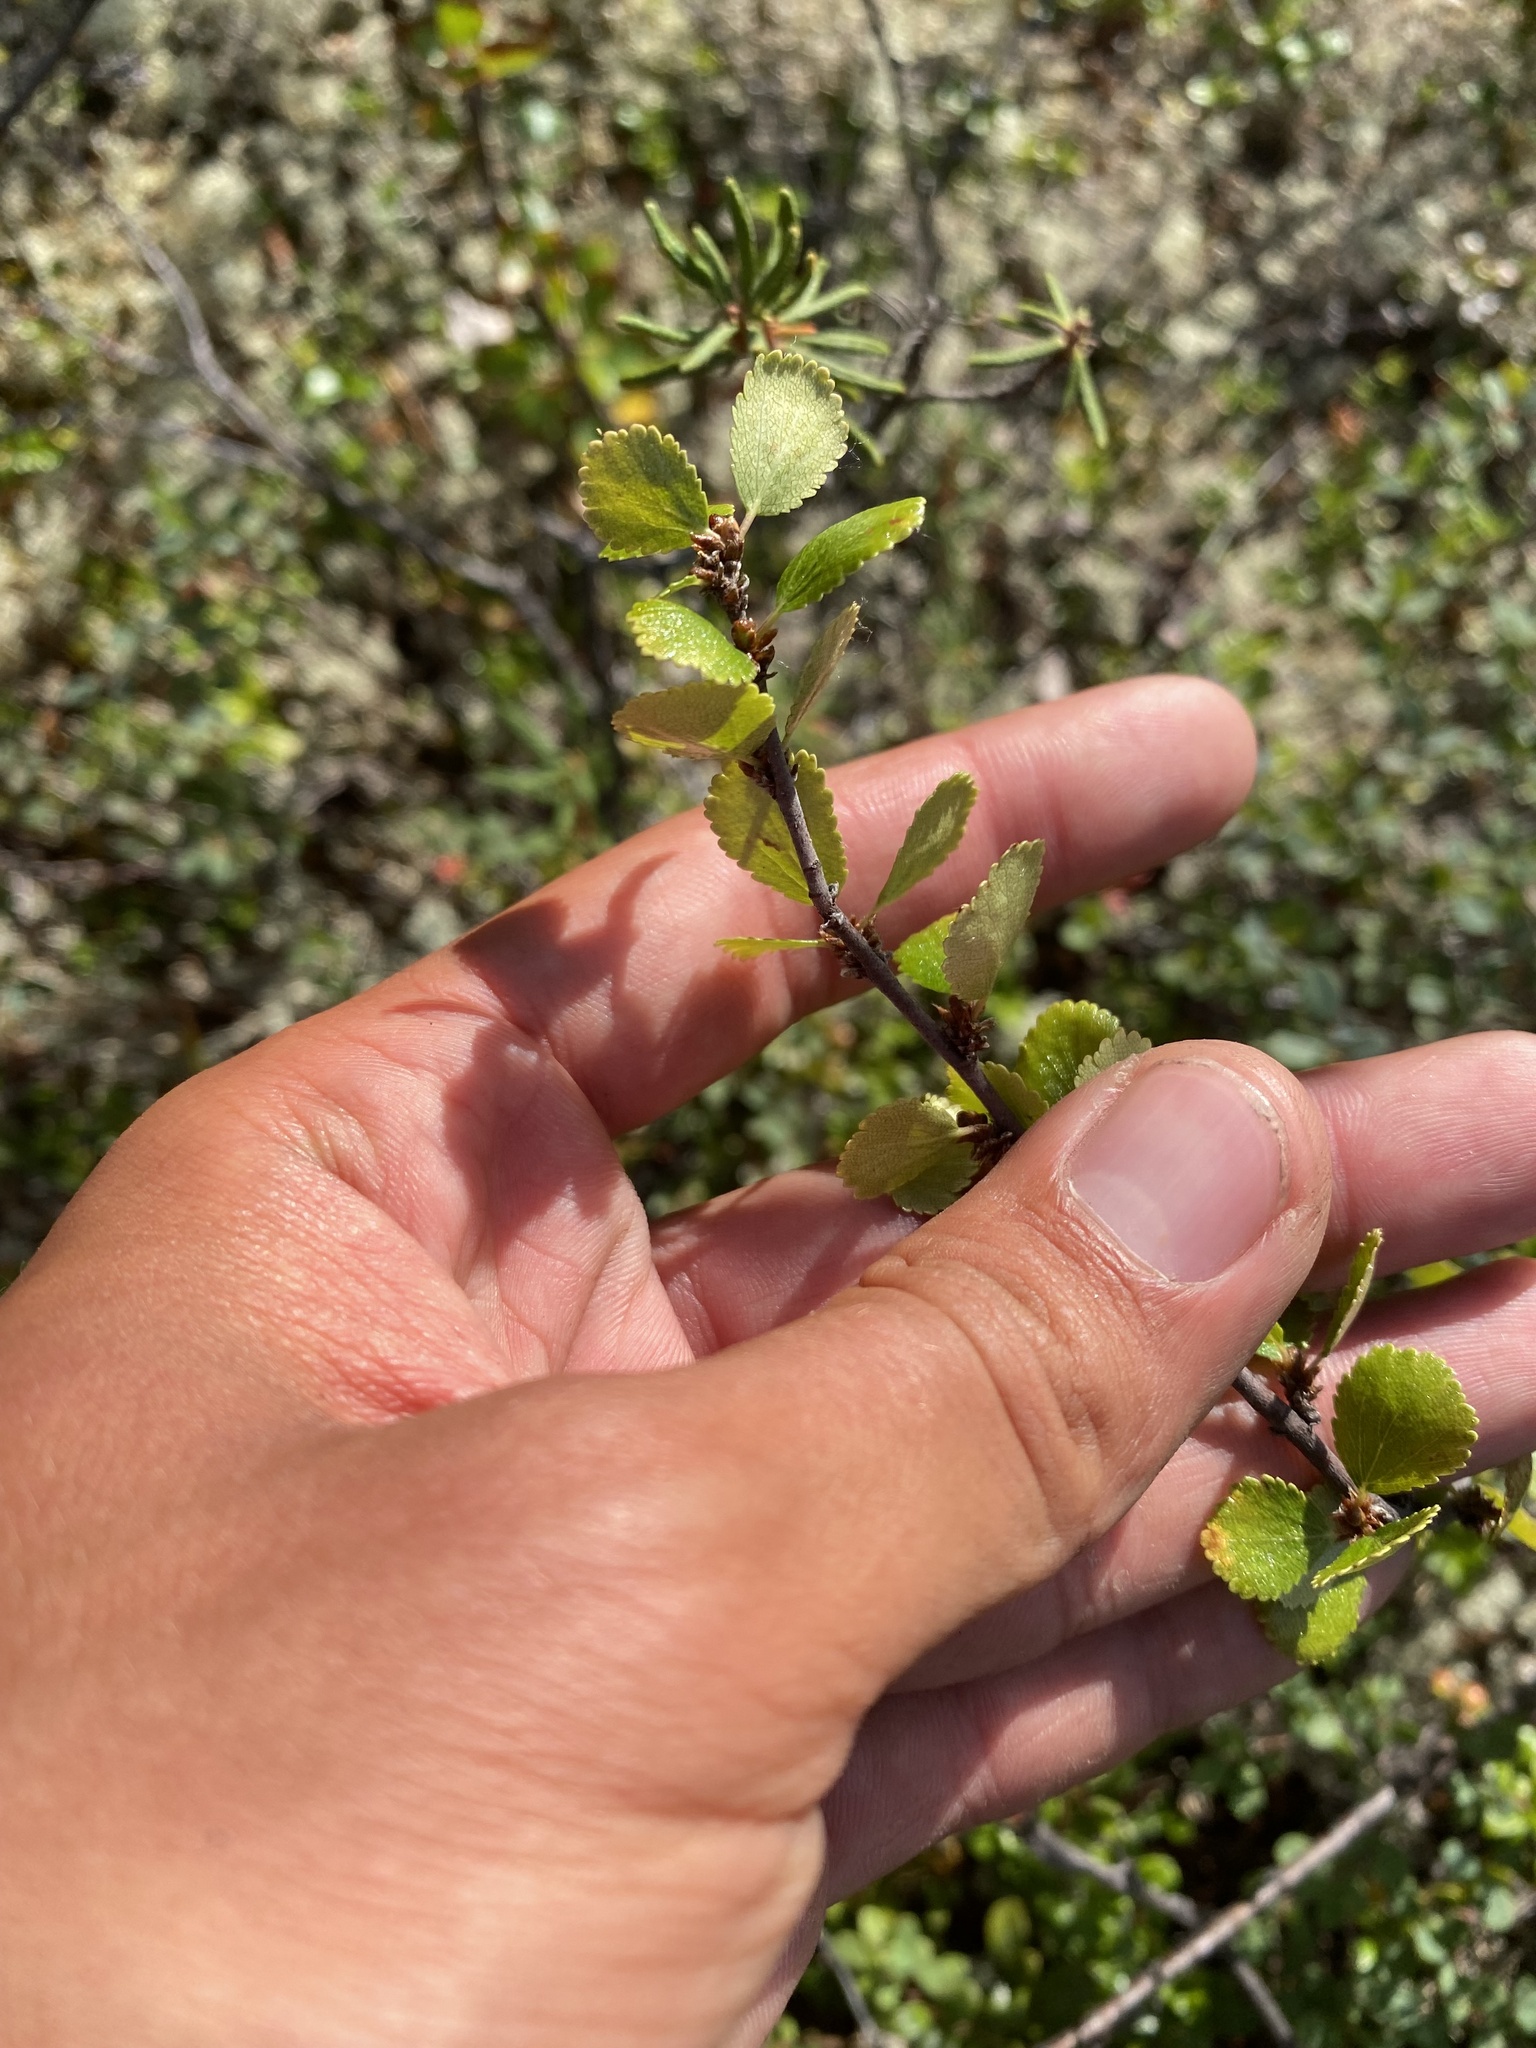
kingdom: Plantae
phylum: Tracheophyta
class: Magnoliopsida
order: Fagales
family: Betulaceae
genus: Betula
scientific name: Betula nana
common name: Arctic dwarf birch
